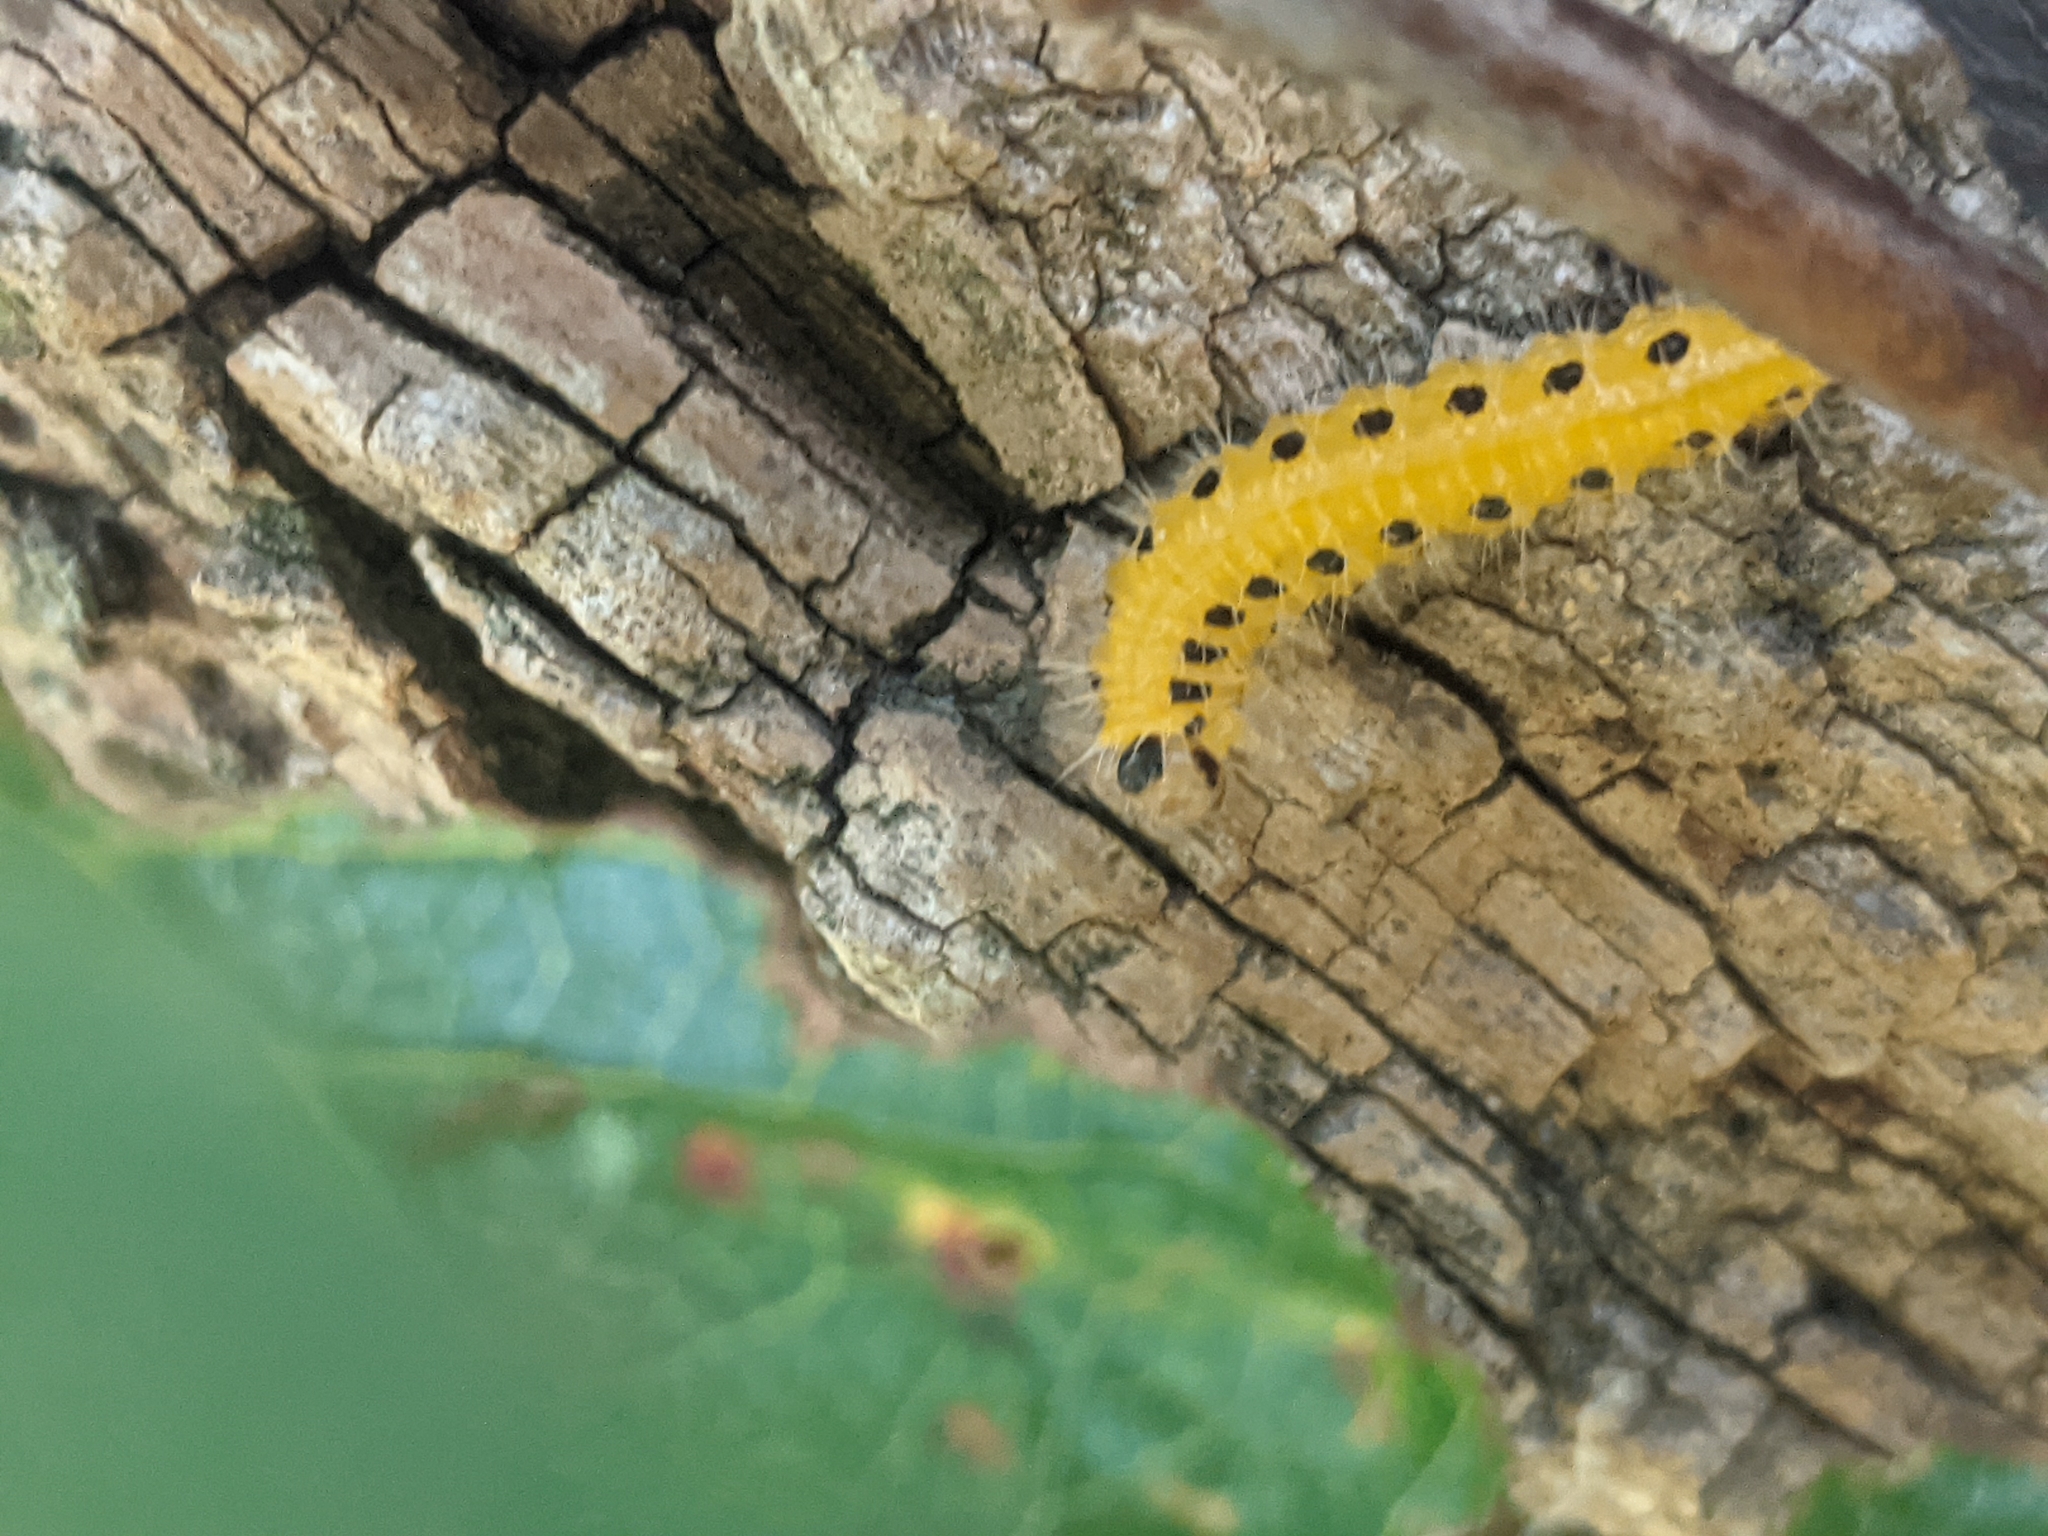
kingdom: Animalia
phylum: Arthropoda
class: Insecta
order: Hymenoptera
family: Tenthredinidae
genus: Cladius
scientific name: Cladius grandis
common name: Common sawfly
